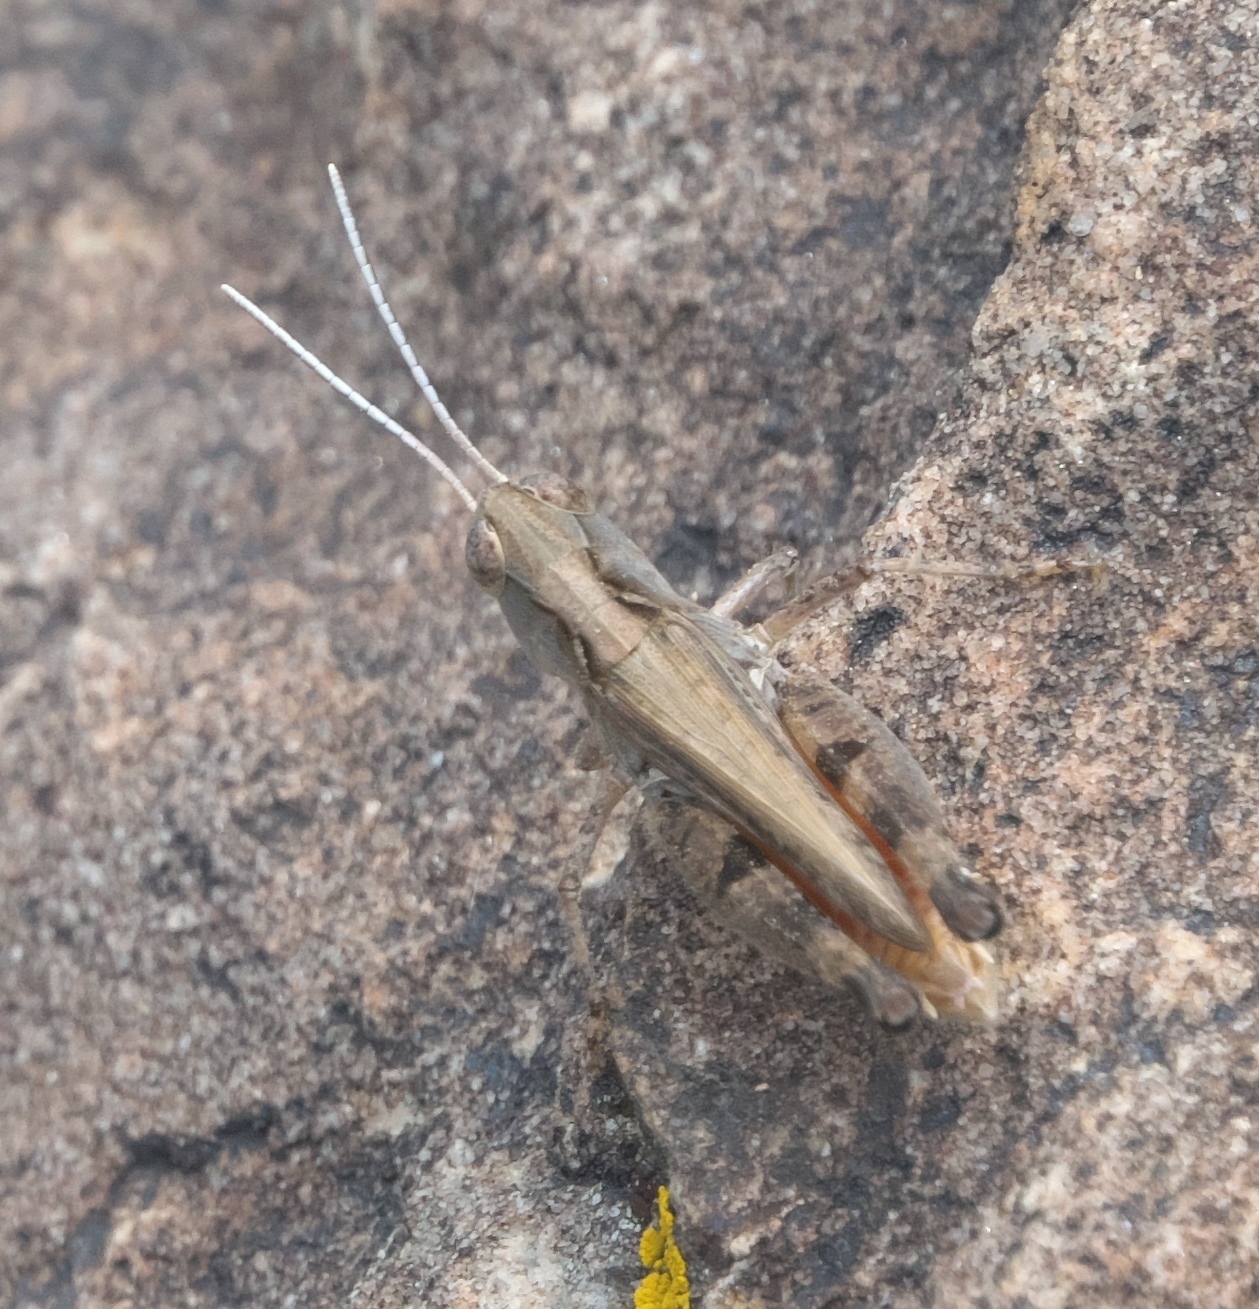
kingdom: Animalia
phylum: Arthropoda
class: Insecta
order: Orthoptera
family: Acrididae
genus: Ageneotettix
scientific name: Ageneotettix deorum
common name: White-whiskered grasshopper
